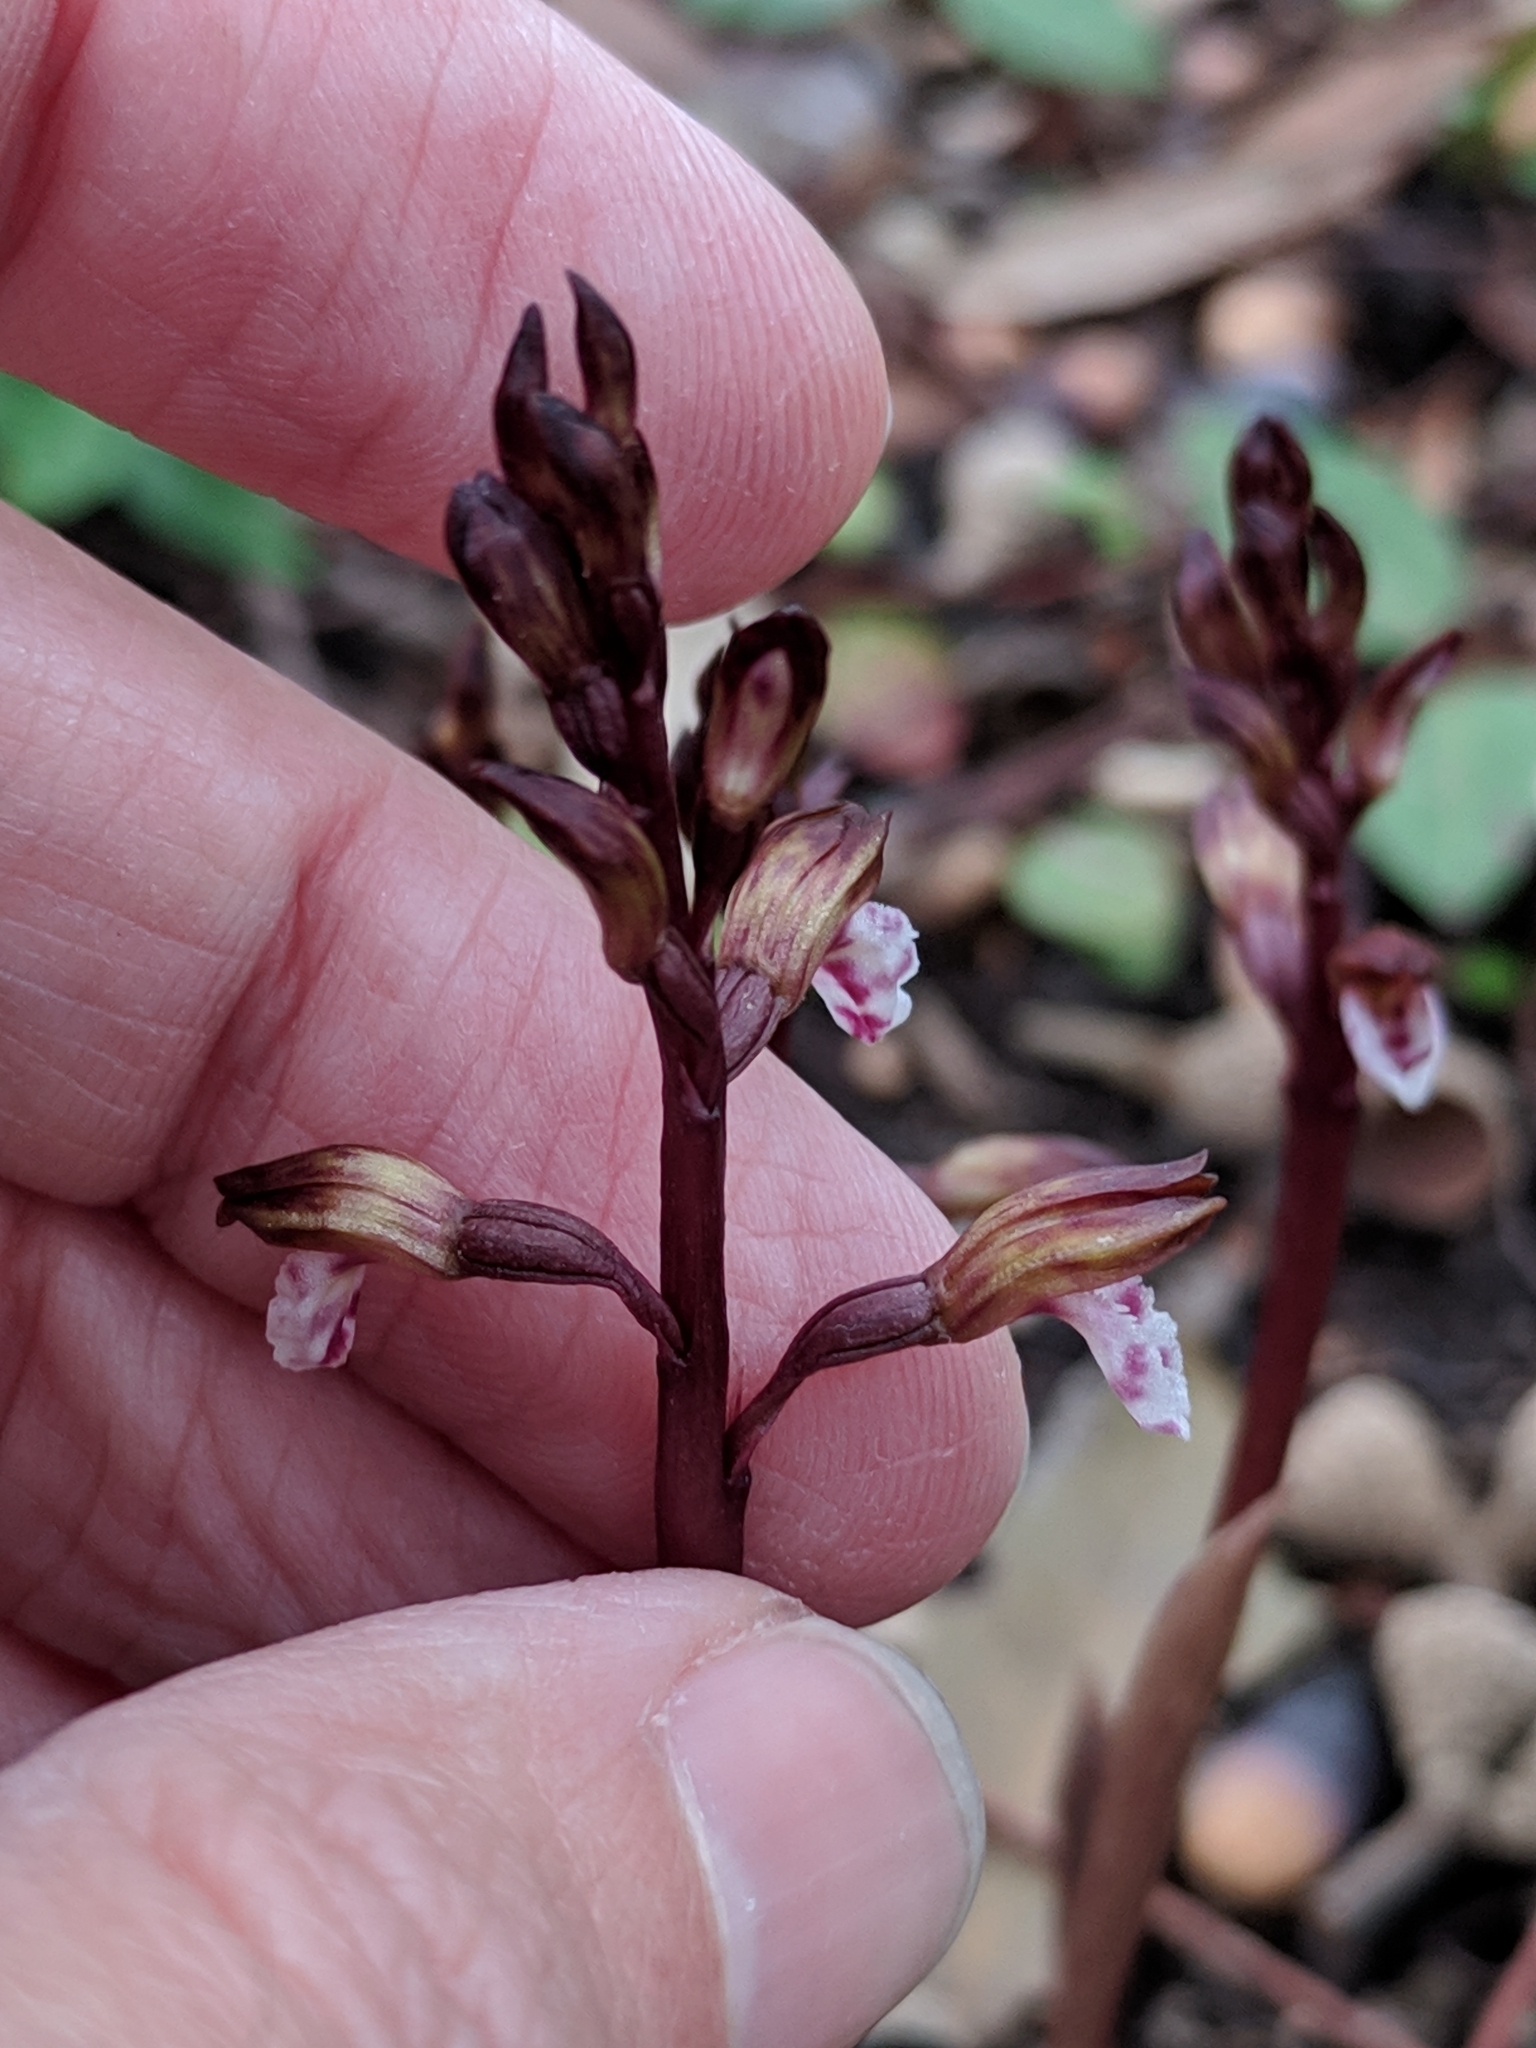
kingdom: Plantae
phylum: Tracheophyta
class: Liliopsida
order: Asparagales
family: Orchidaceae
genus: Corallorhiza
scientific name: Corallorhiza wisteriana
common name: Spring coralroot
